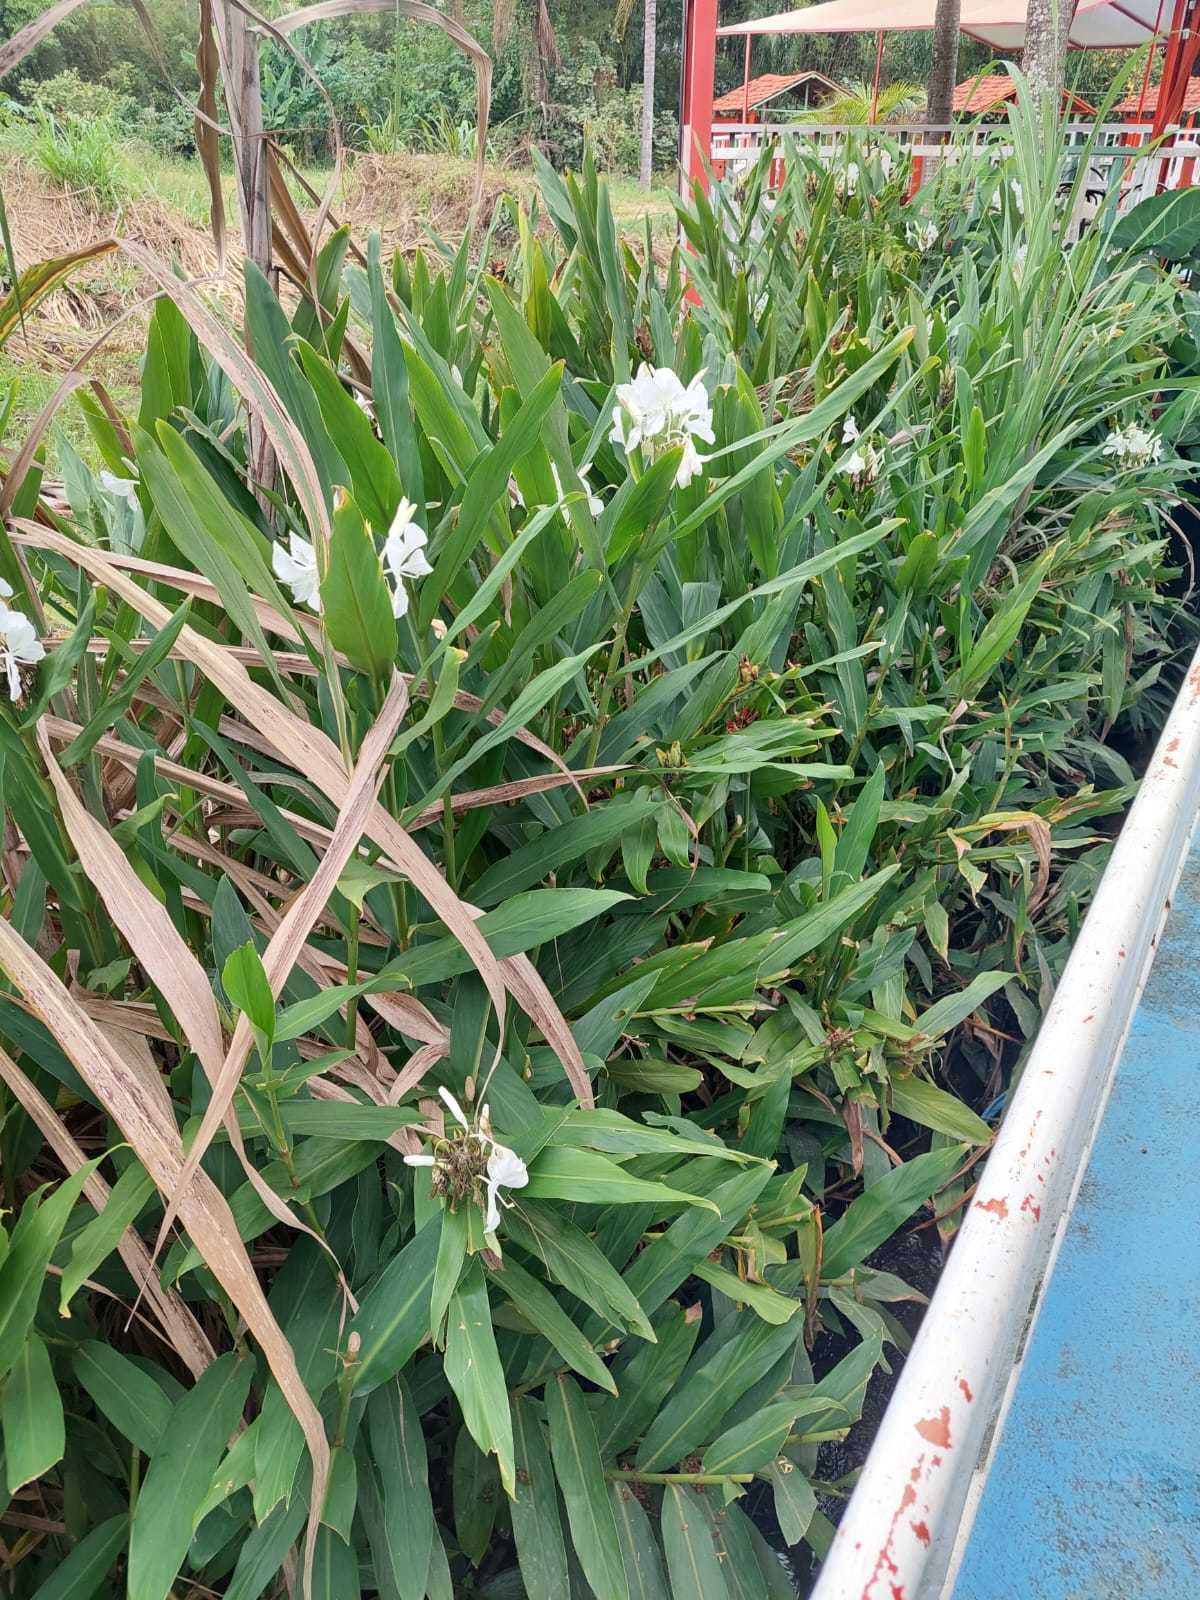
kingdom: Plantae
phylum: Tracheophyta
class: Liliopsida
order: Zingiberales
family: Zingiberaceae
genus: Hedychium
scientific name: Hedychium coronarium
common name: White garland-lily
